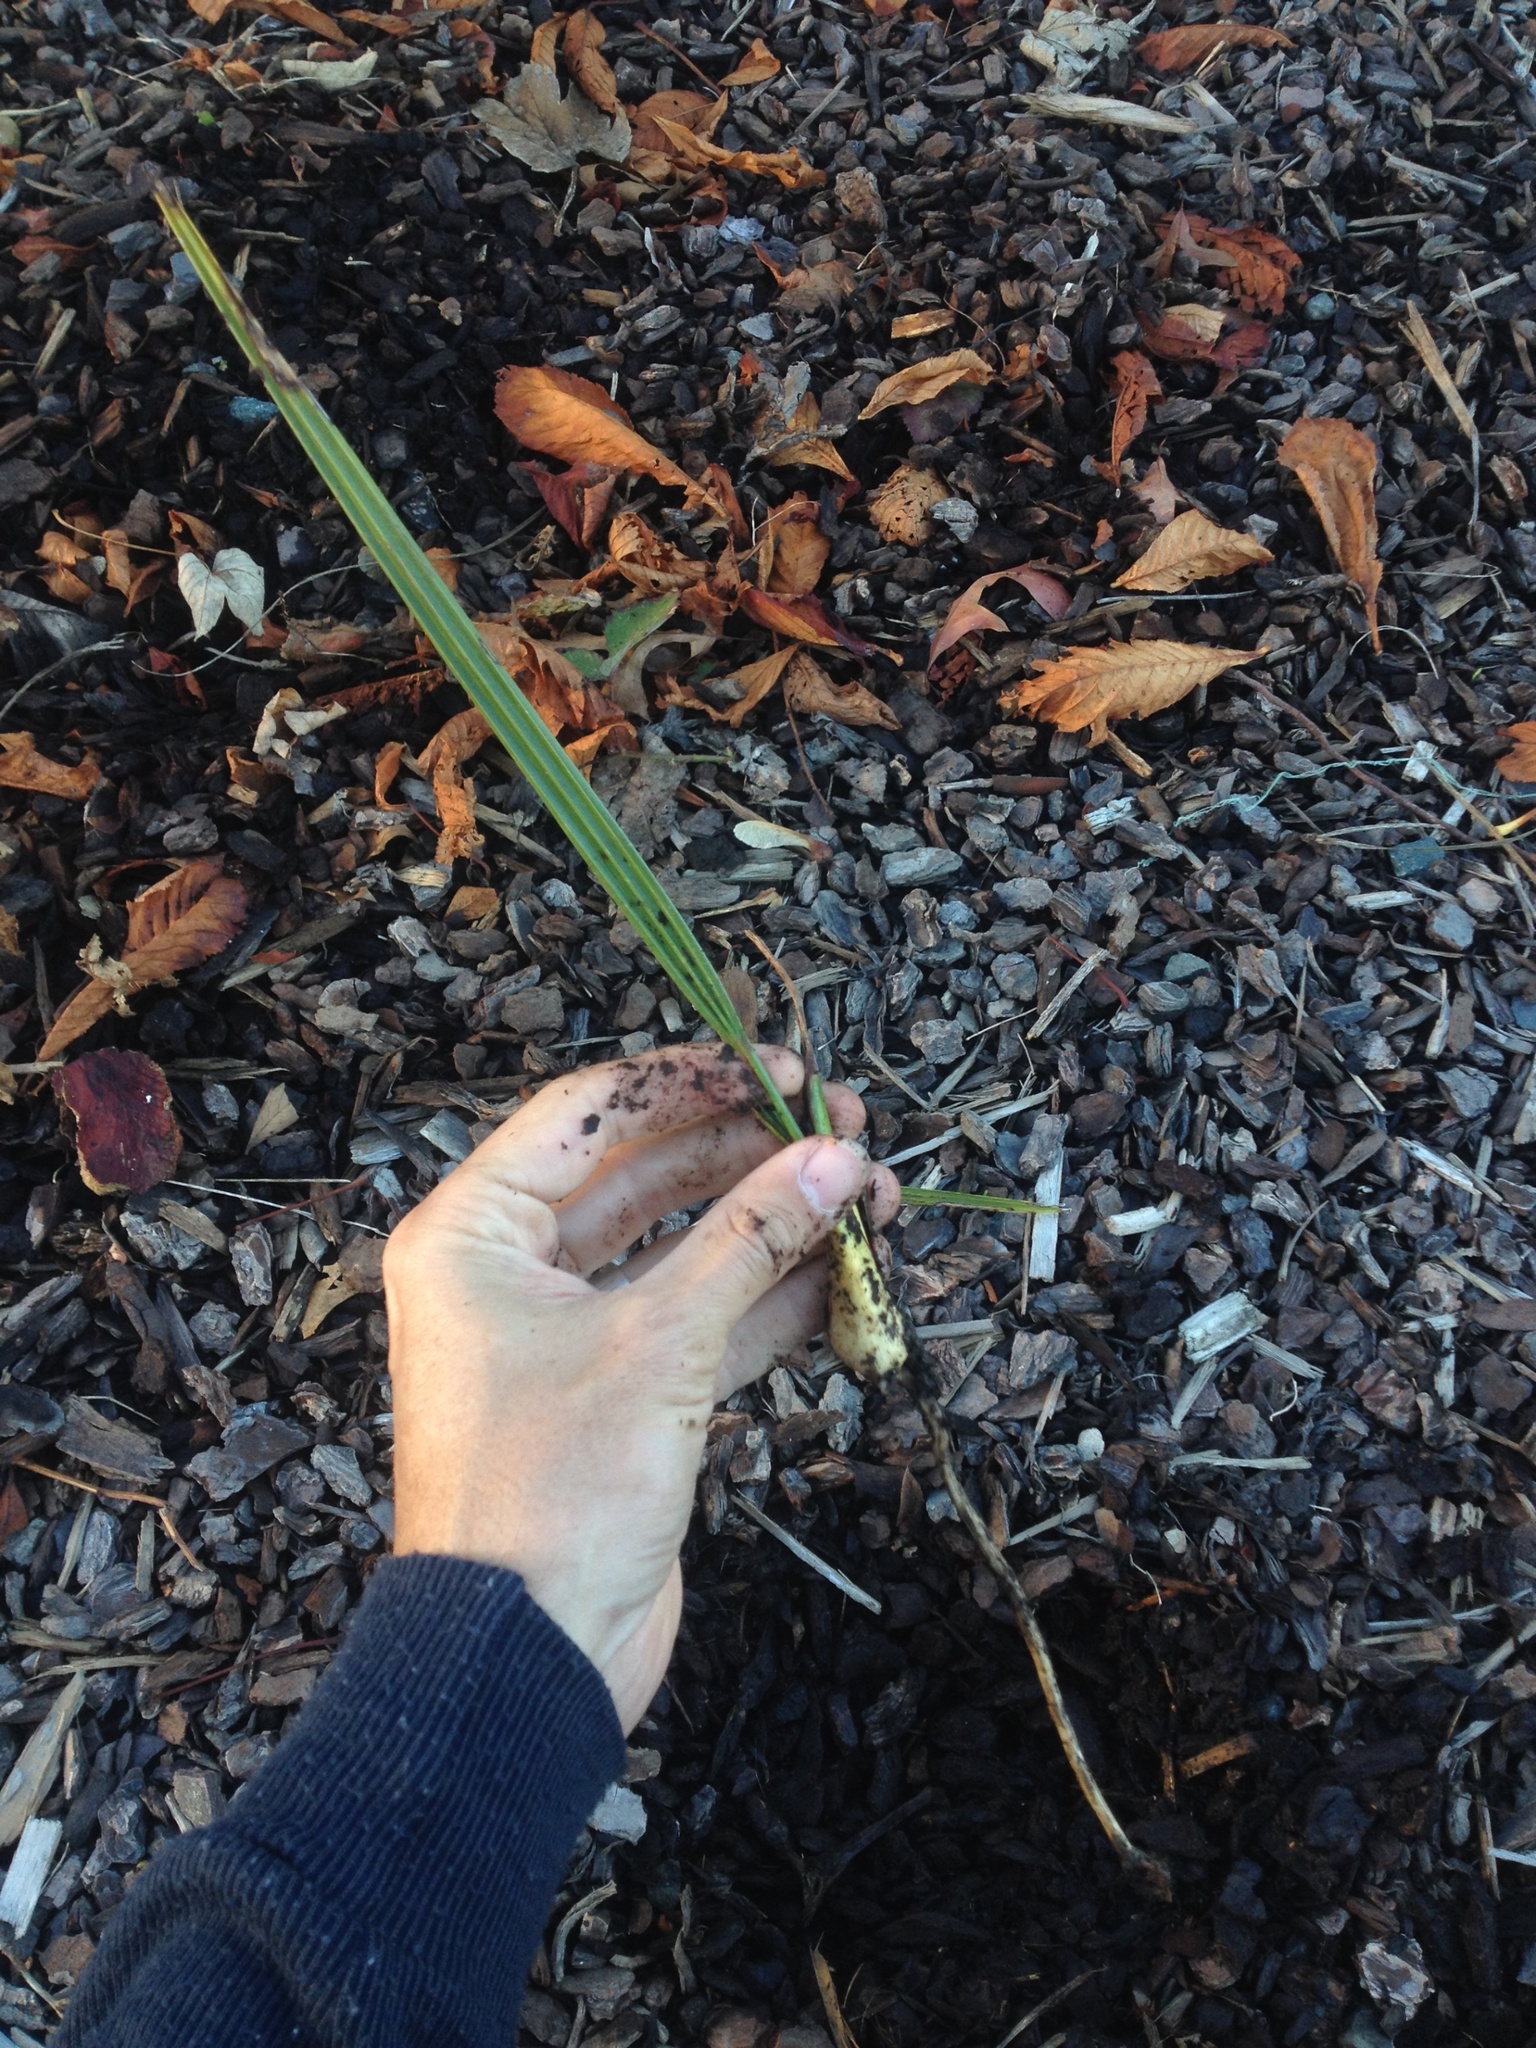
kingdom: Plantae
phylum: Tracheophyta
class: Liliopsida
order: Arecales
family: Arecaceae
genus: Phoenix
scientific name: Phoenix canariensis
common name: Canary island date palm
